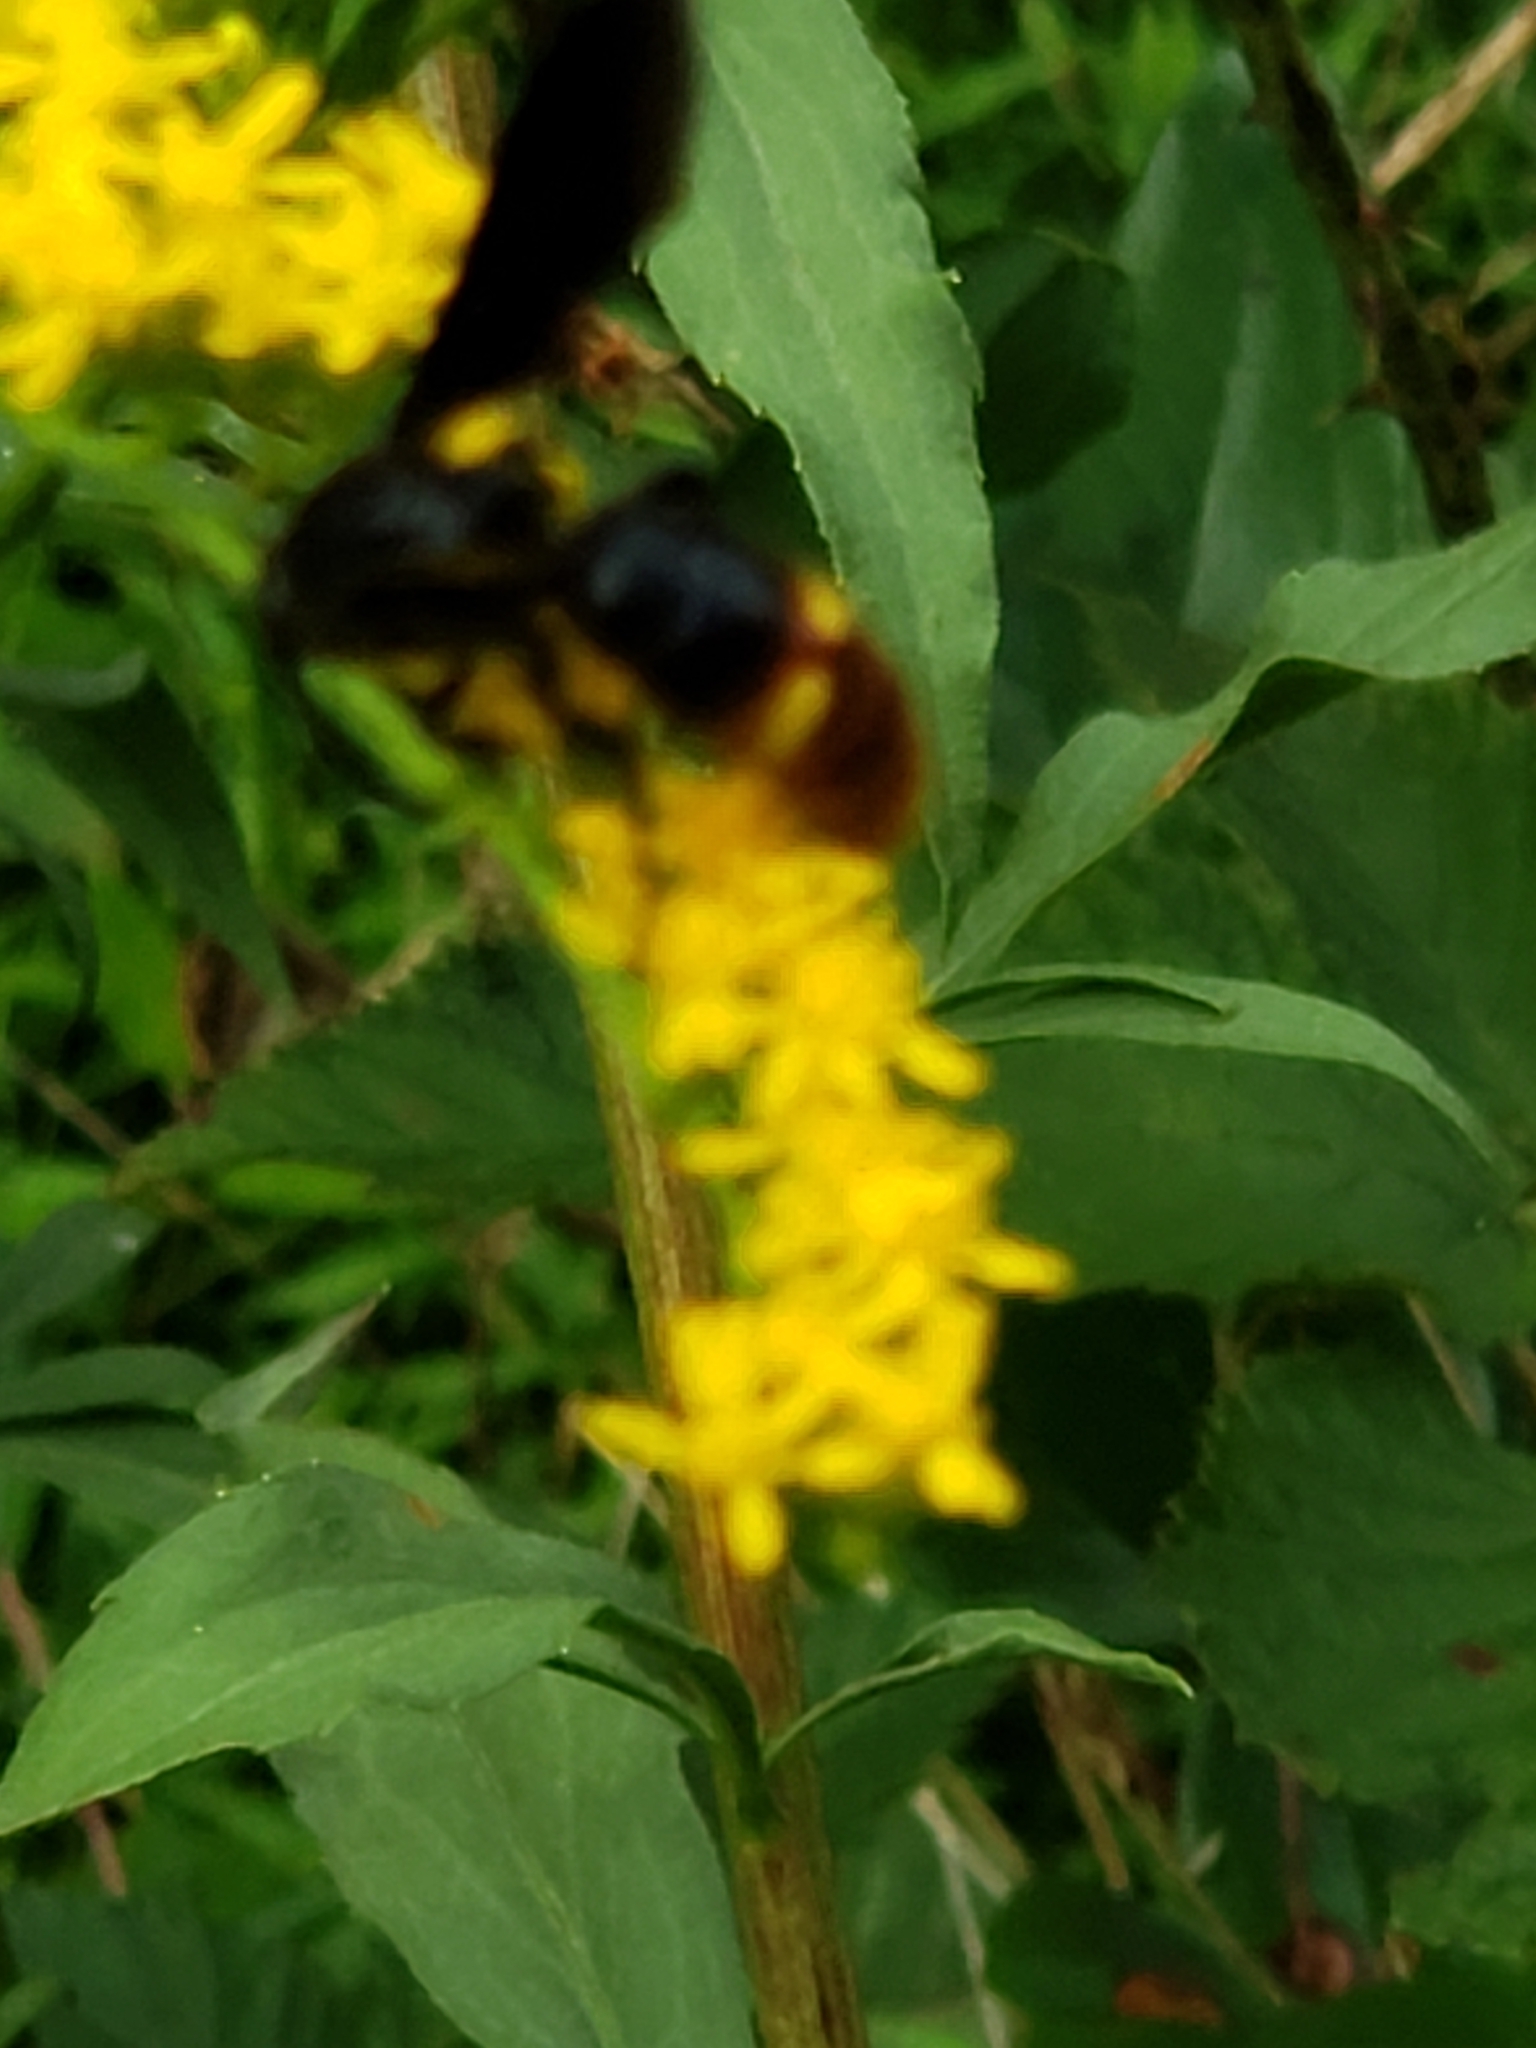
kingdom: Animalia
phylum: Arthropoda
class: Insecta
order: Hymenoptera
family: Scoliidae
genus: Scolia
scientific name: Scolia dubia
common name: Blue-winged scoliid wasp
